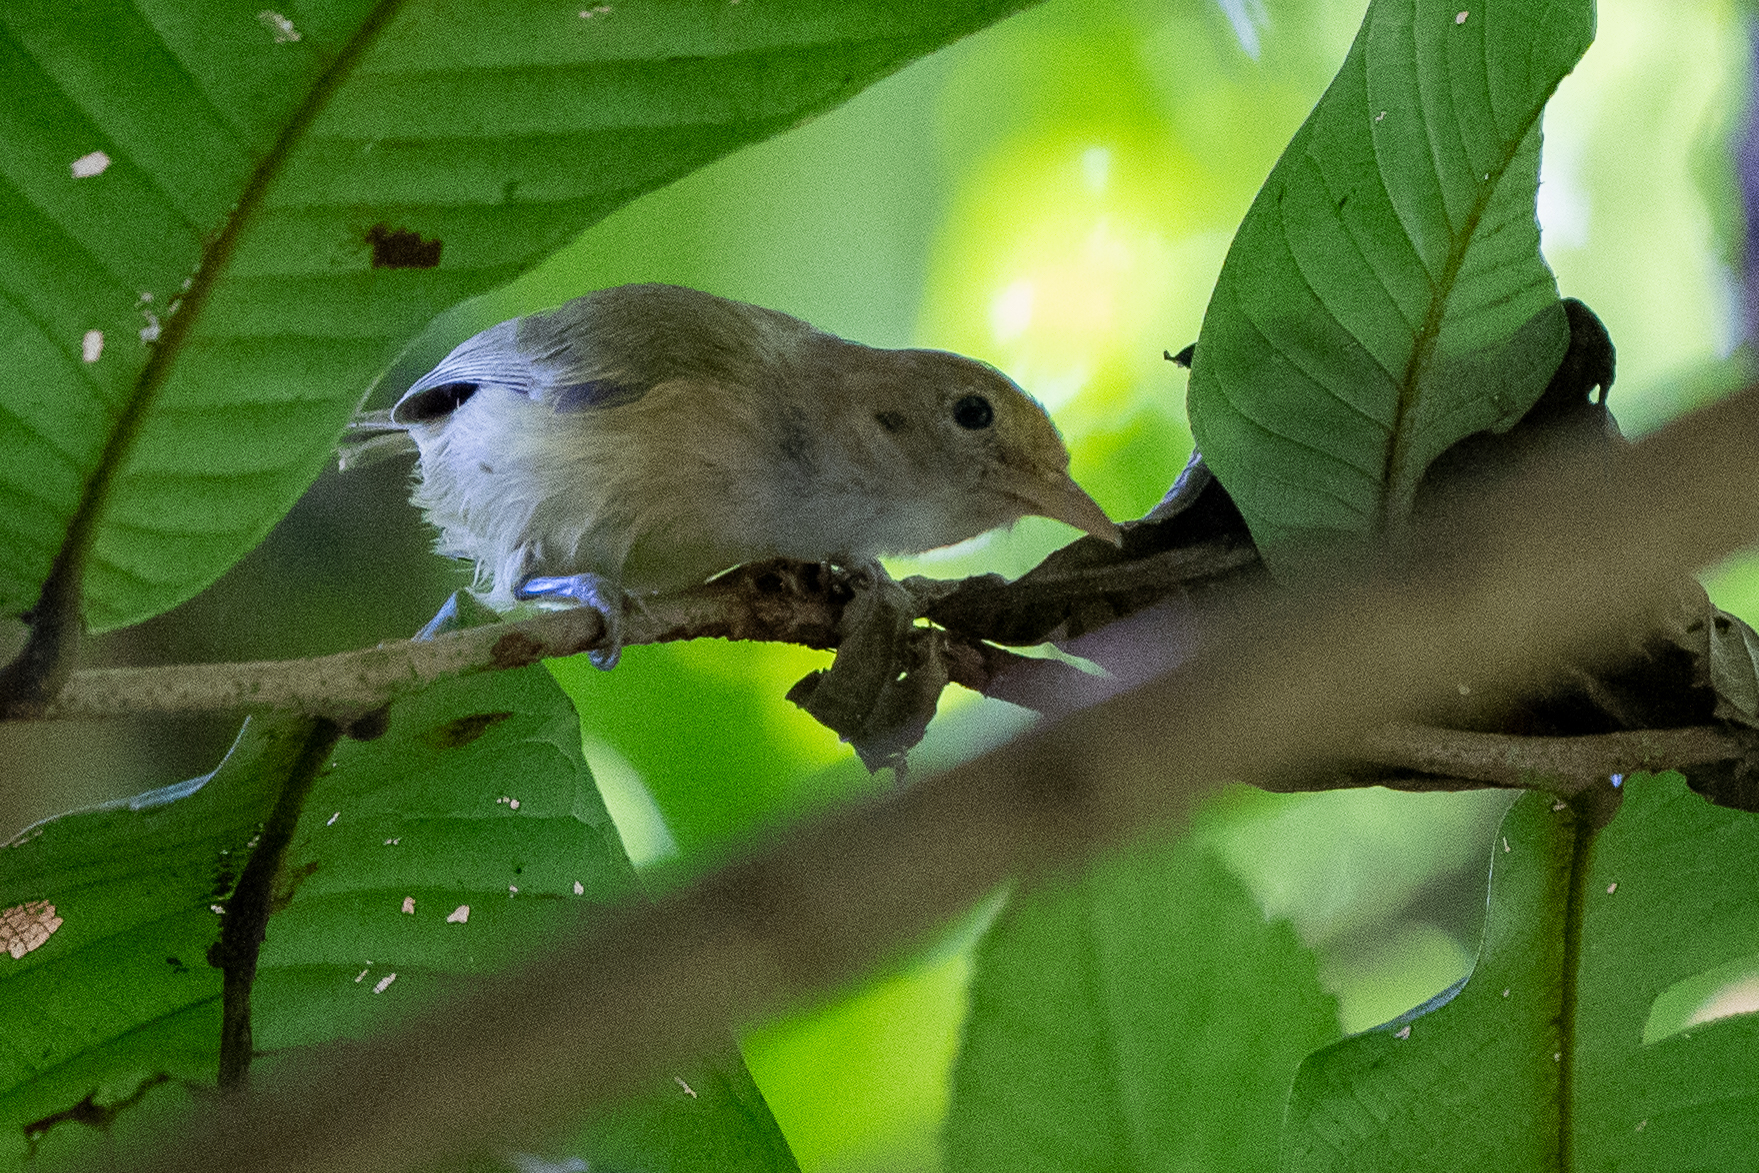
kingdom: Animalia
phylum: Chordata
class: Aves
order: Passeriformes
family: Vireonidae
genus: Hylophilus
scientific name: Hylophilus decurtatus
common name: Lesser greenlet
